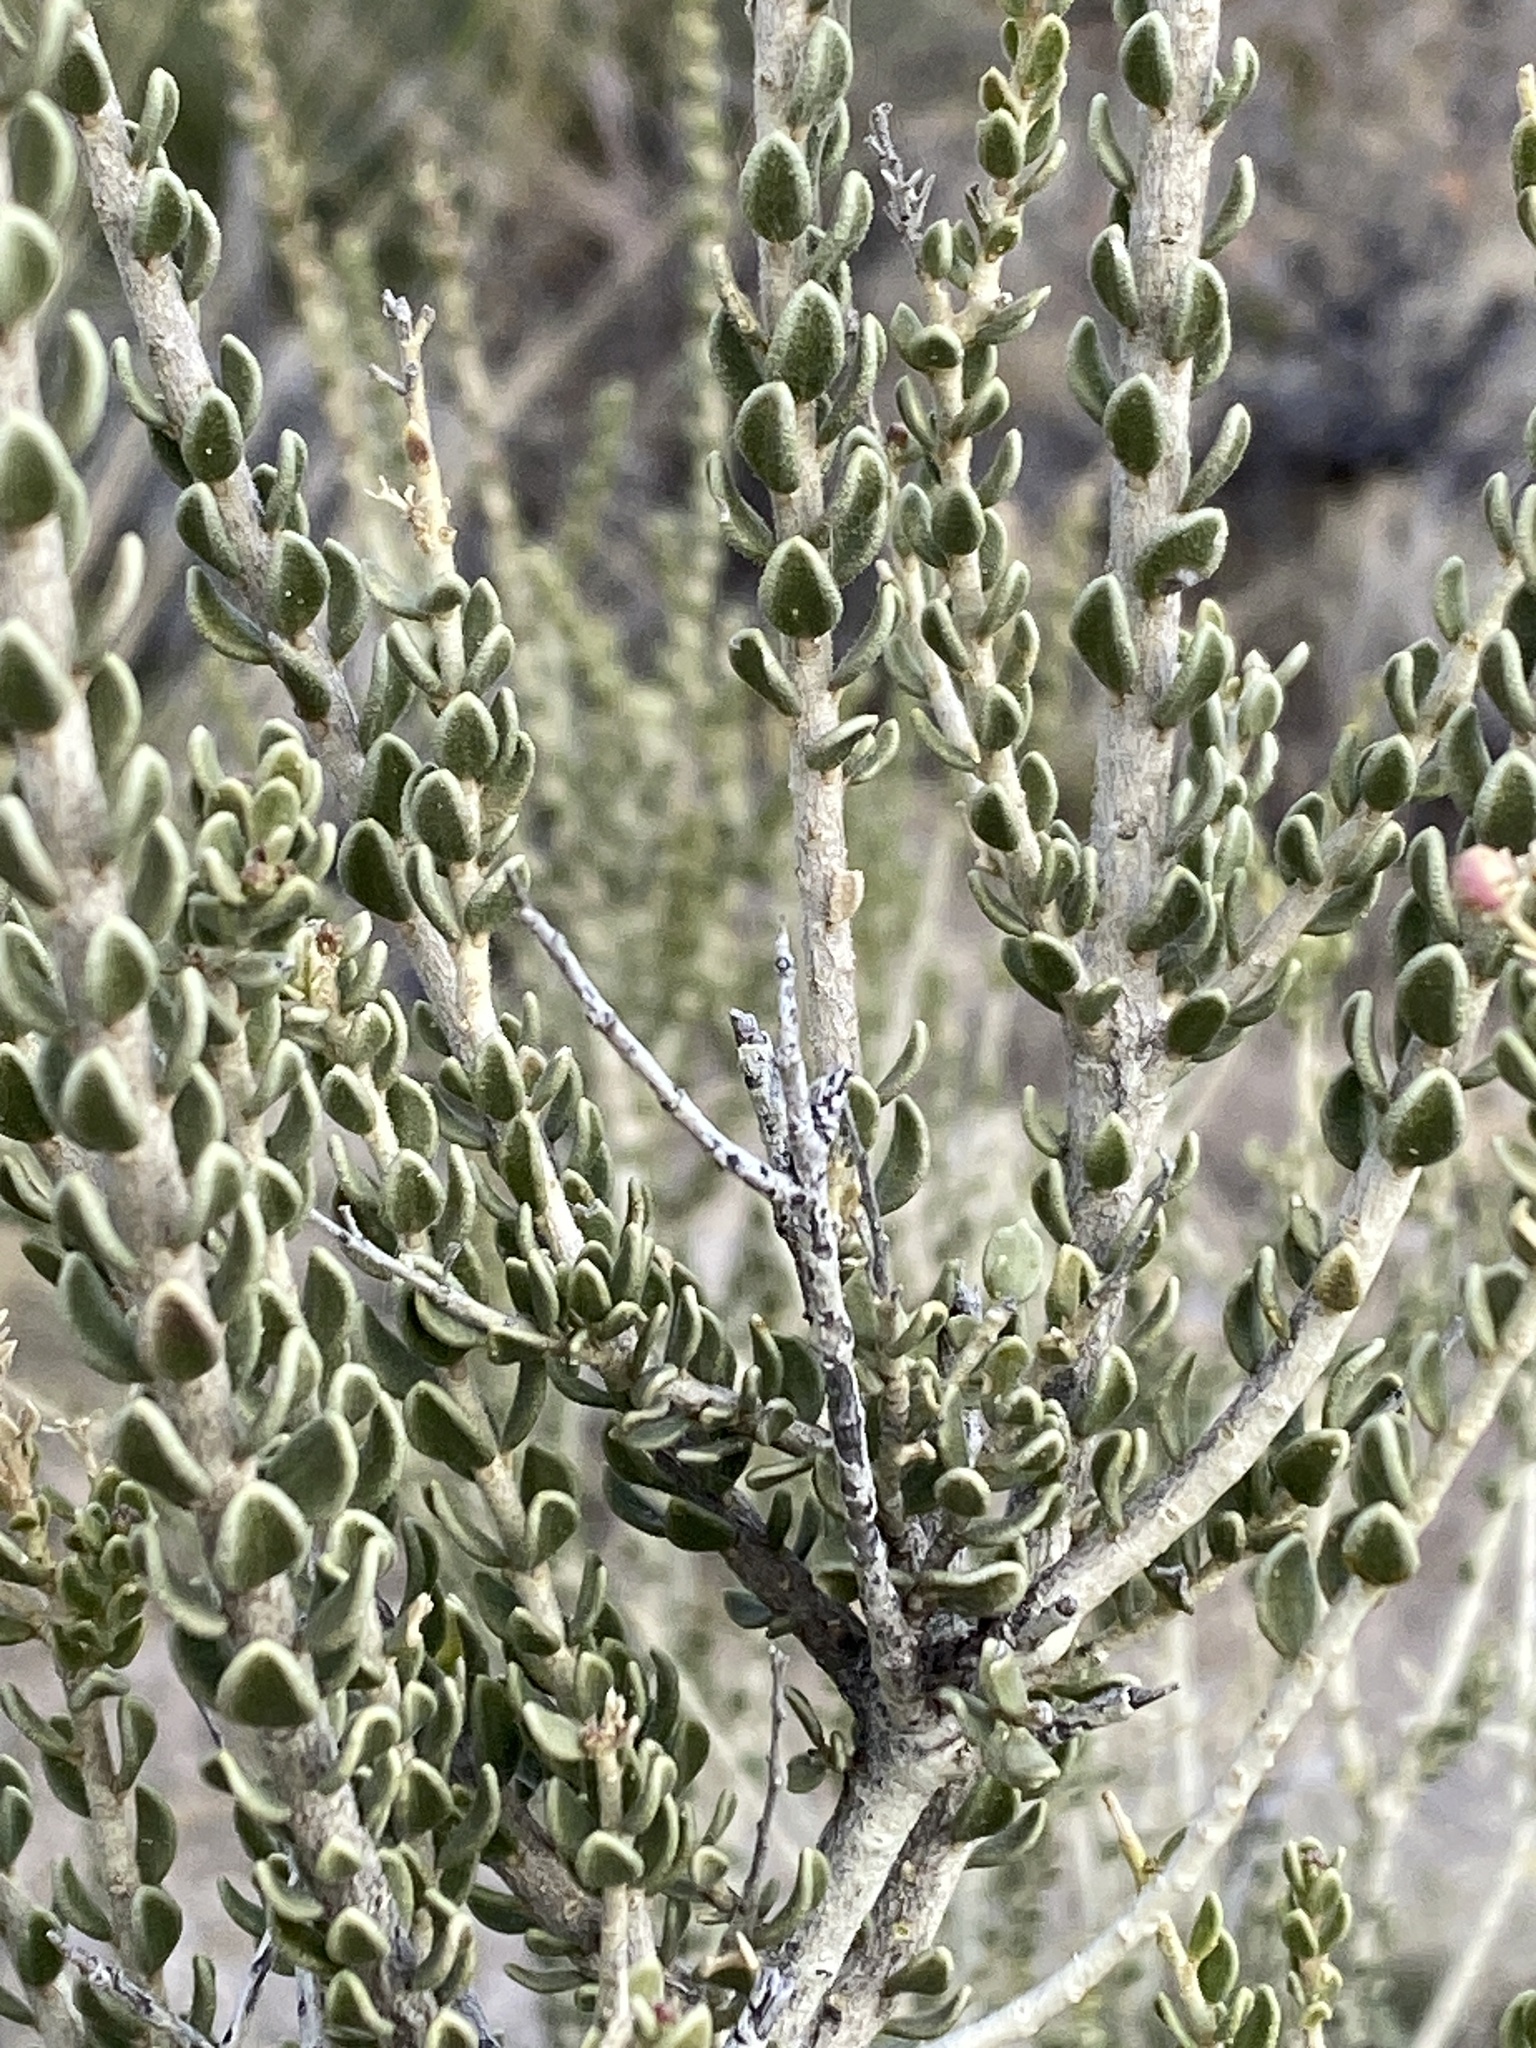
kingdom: Plantae
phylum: Tracheophyta
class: Magnoliopsida
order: Celastrales
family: Celastraceae
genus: Mortonia
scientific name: Mortonia scabrella
